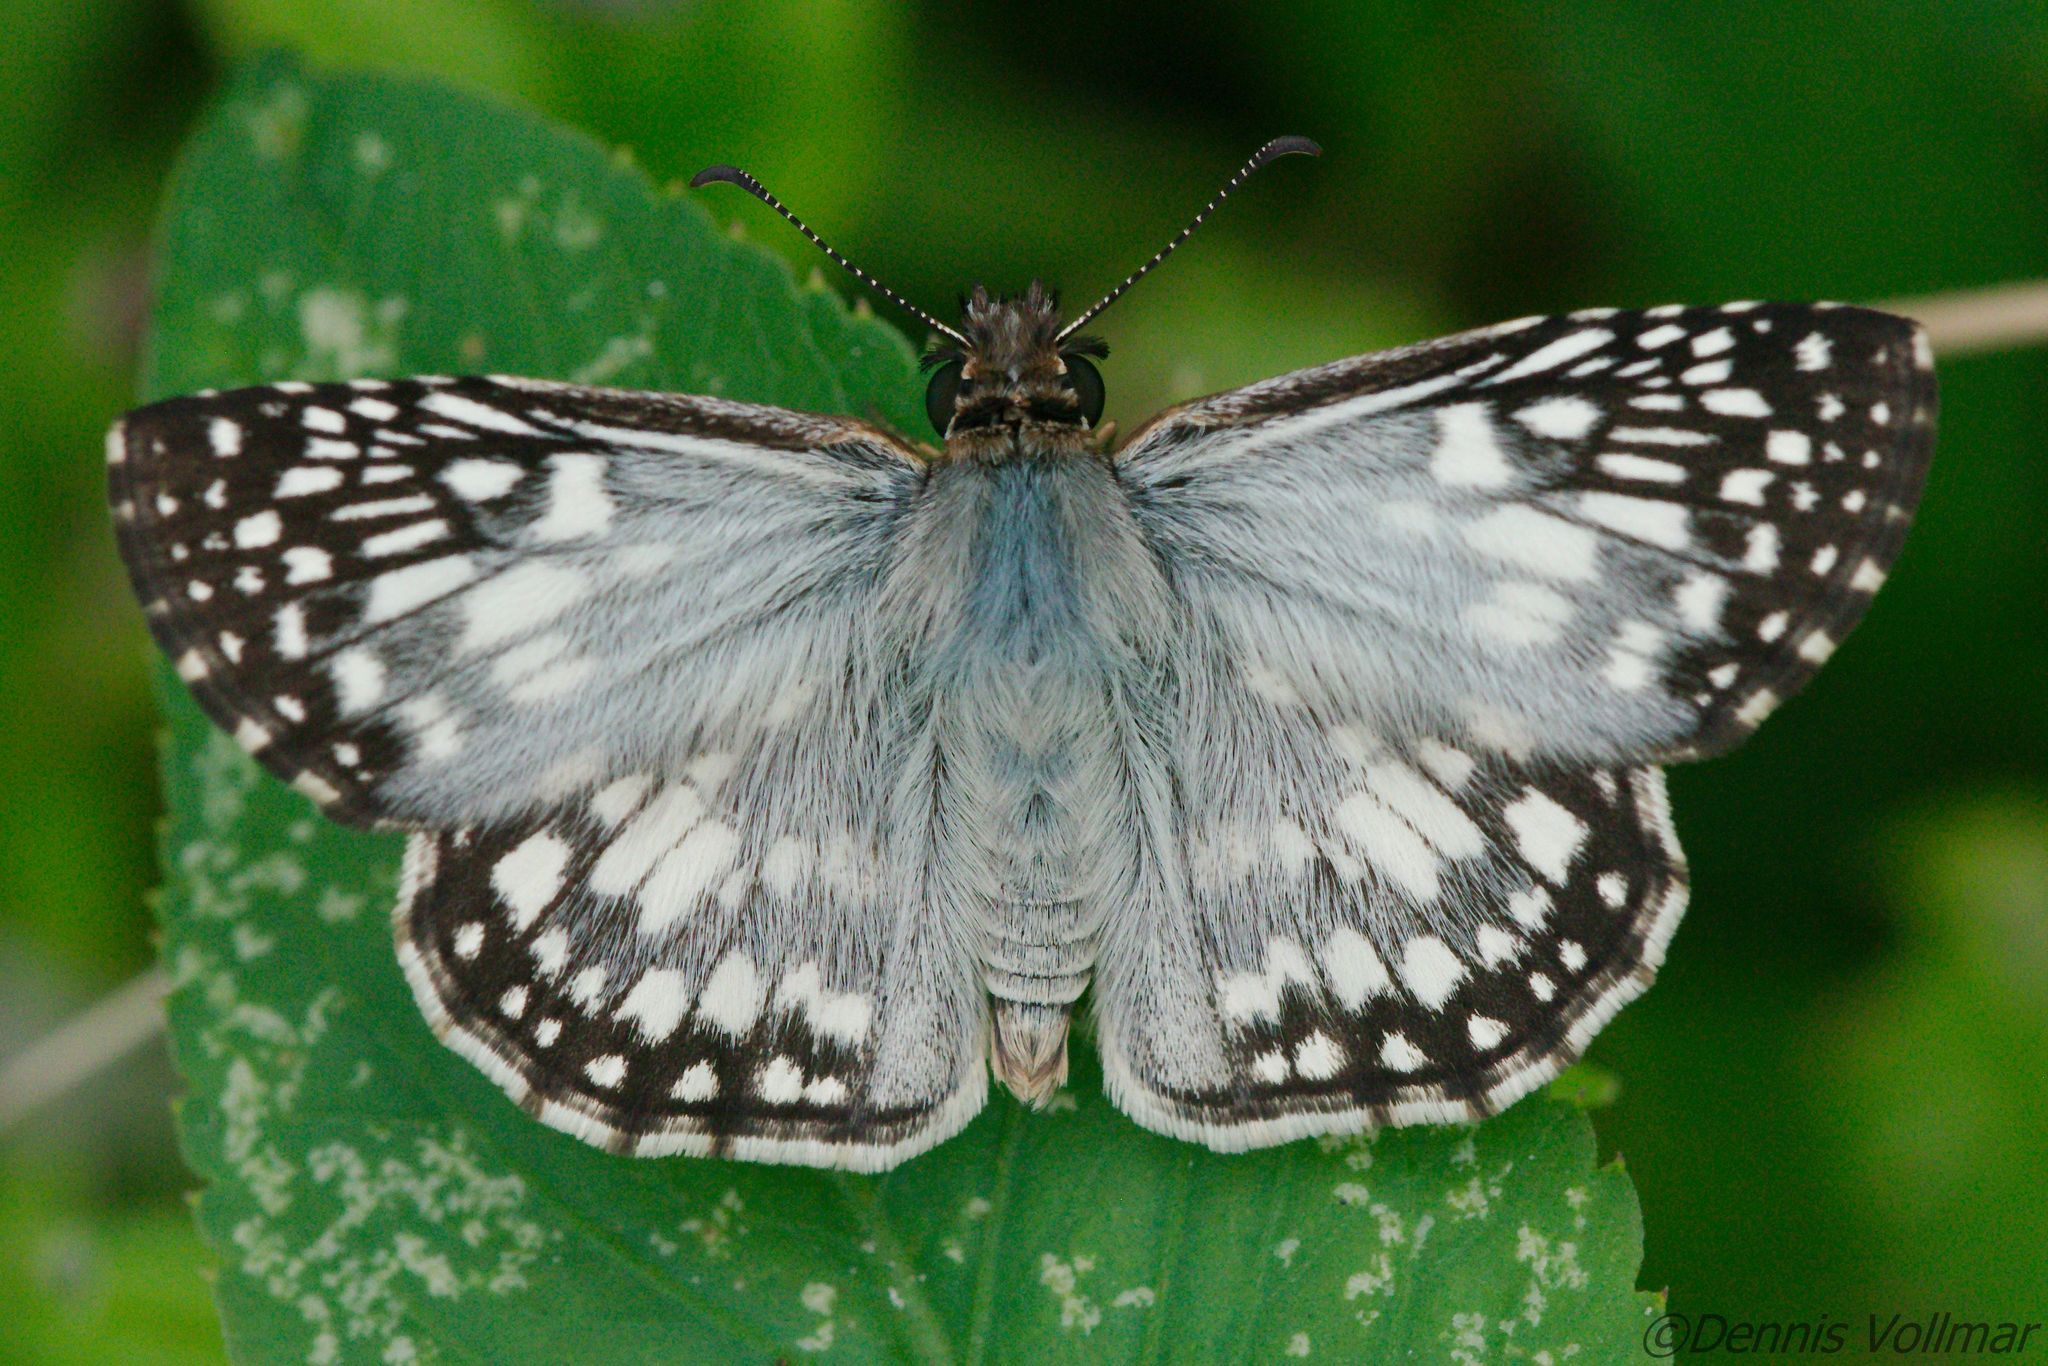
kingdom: Animalia
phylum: Arthropoda
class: Insecta
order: Lepidoptera
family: Hesperiidae
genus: Pyrgus
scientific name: Pyrgus oileus
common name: Tropical checkered-skipper
